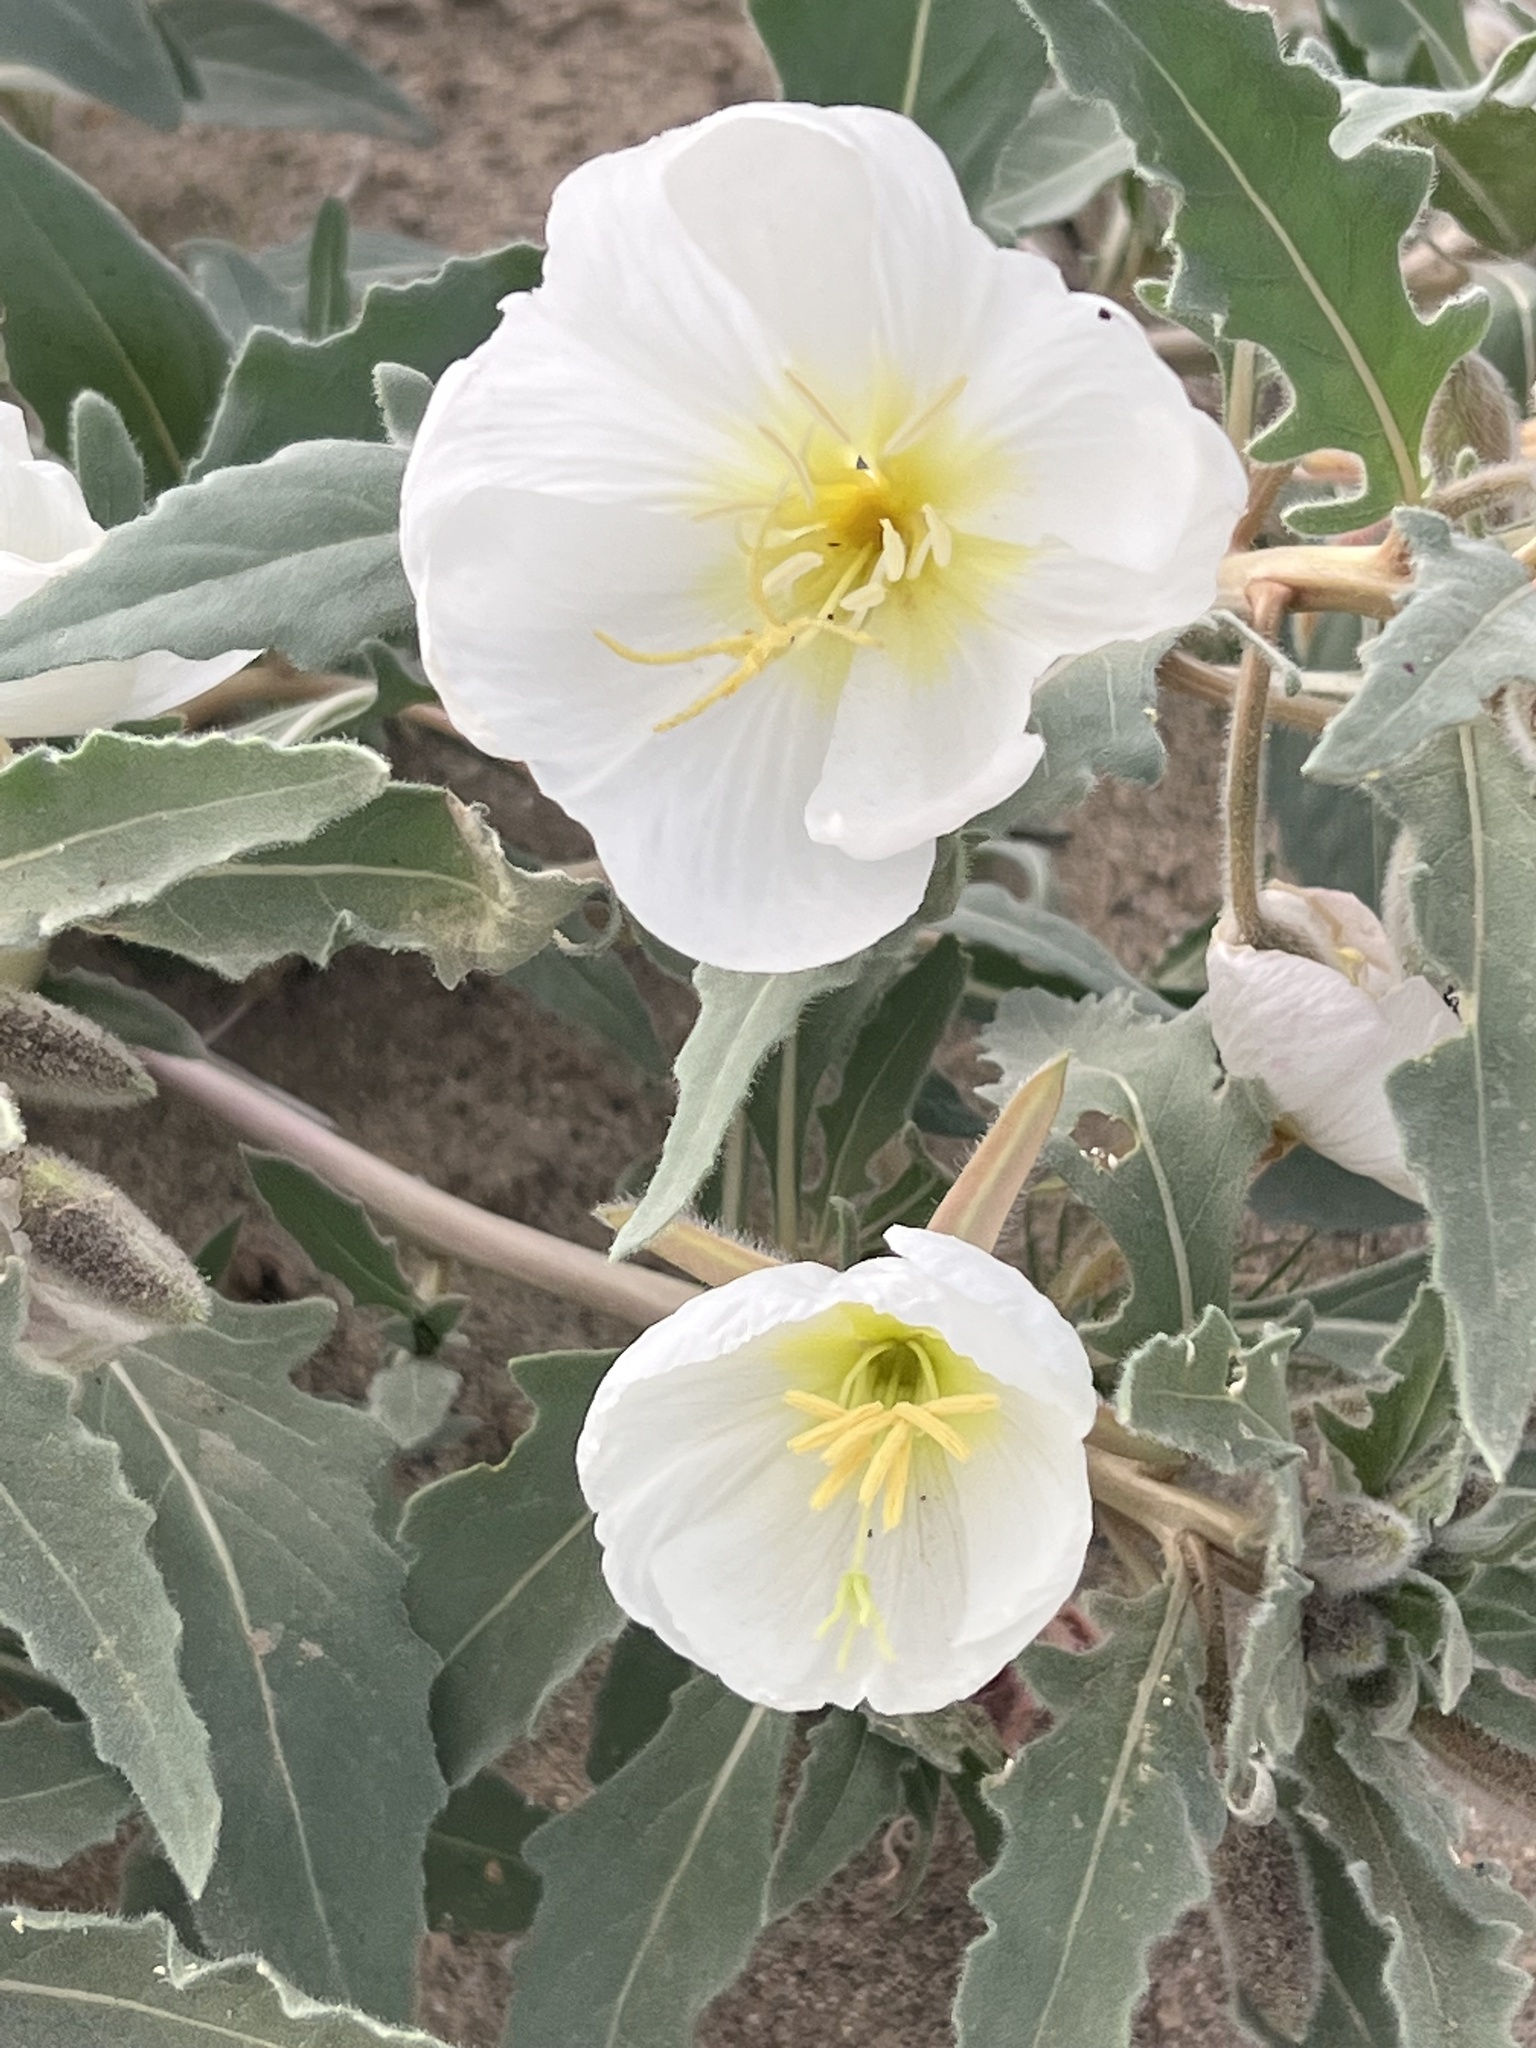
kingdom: Plantae
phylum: Tracheophyta
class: Magnoliopsida
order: Myrtales
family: Onagraceae
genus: Oenothera
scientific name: Oenothera deltoides
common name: Basket evening-primrose
